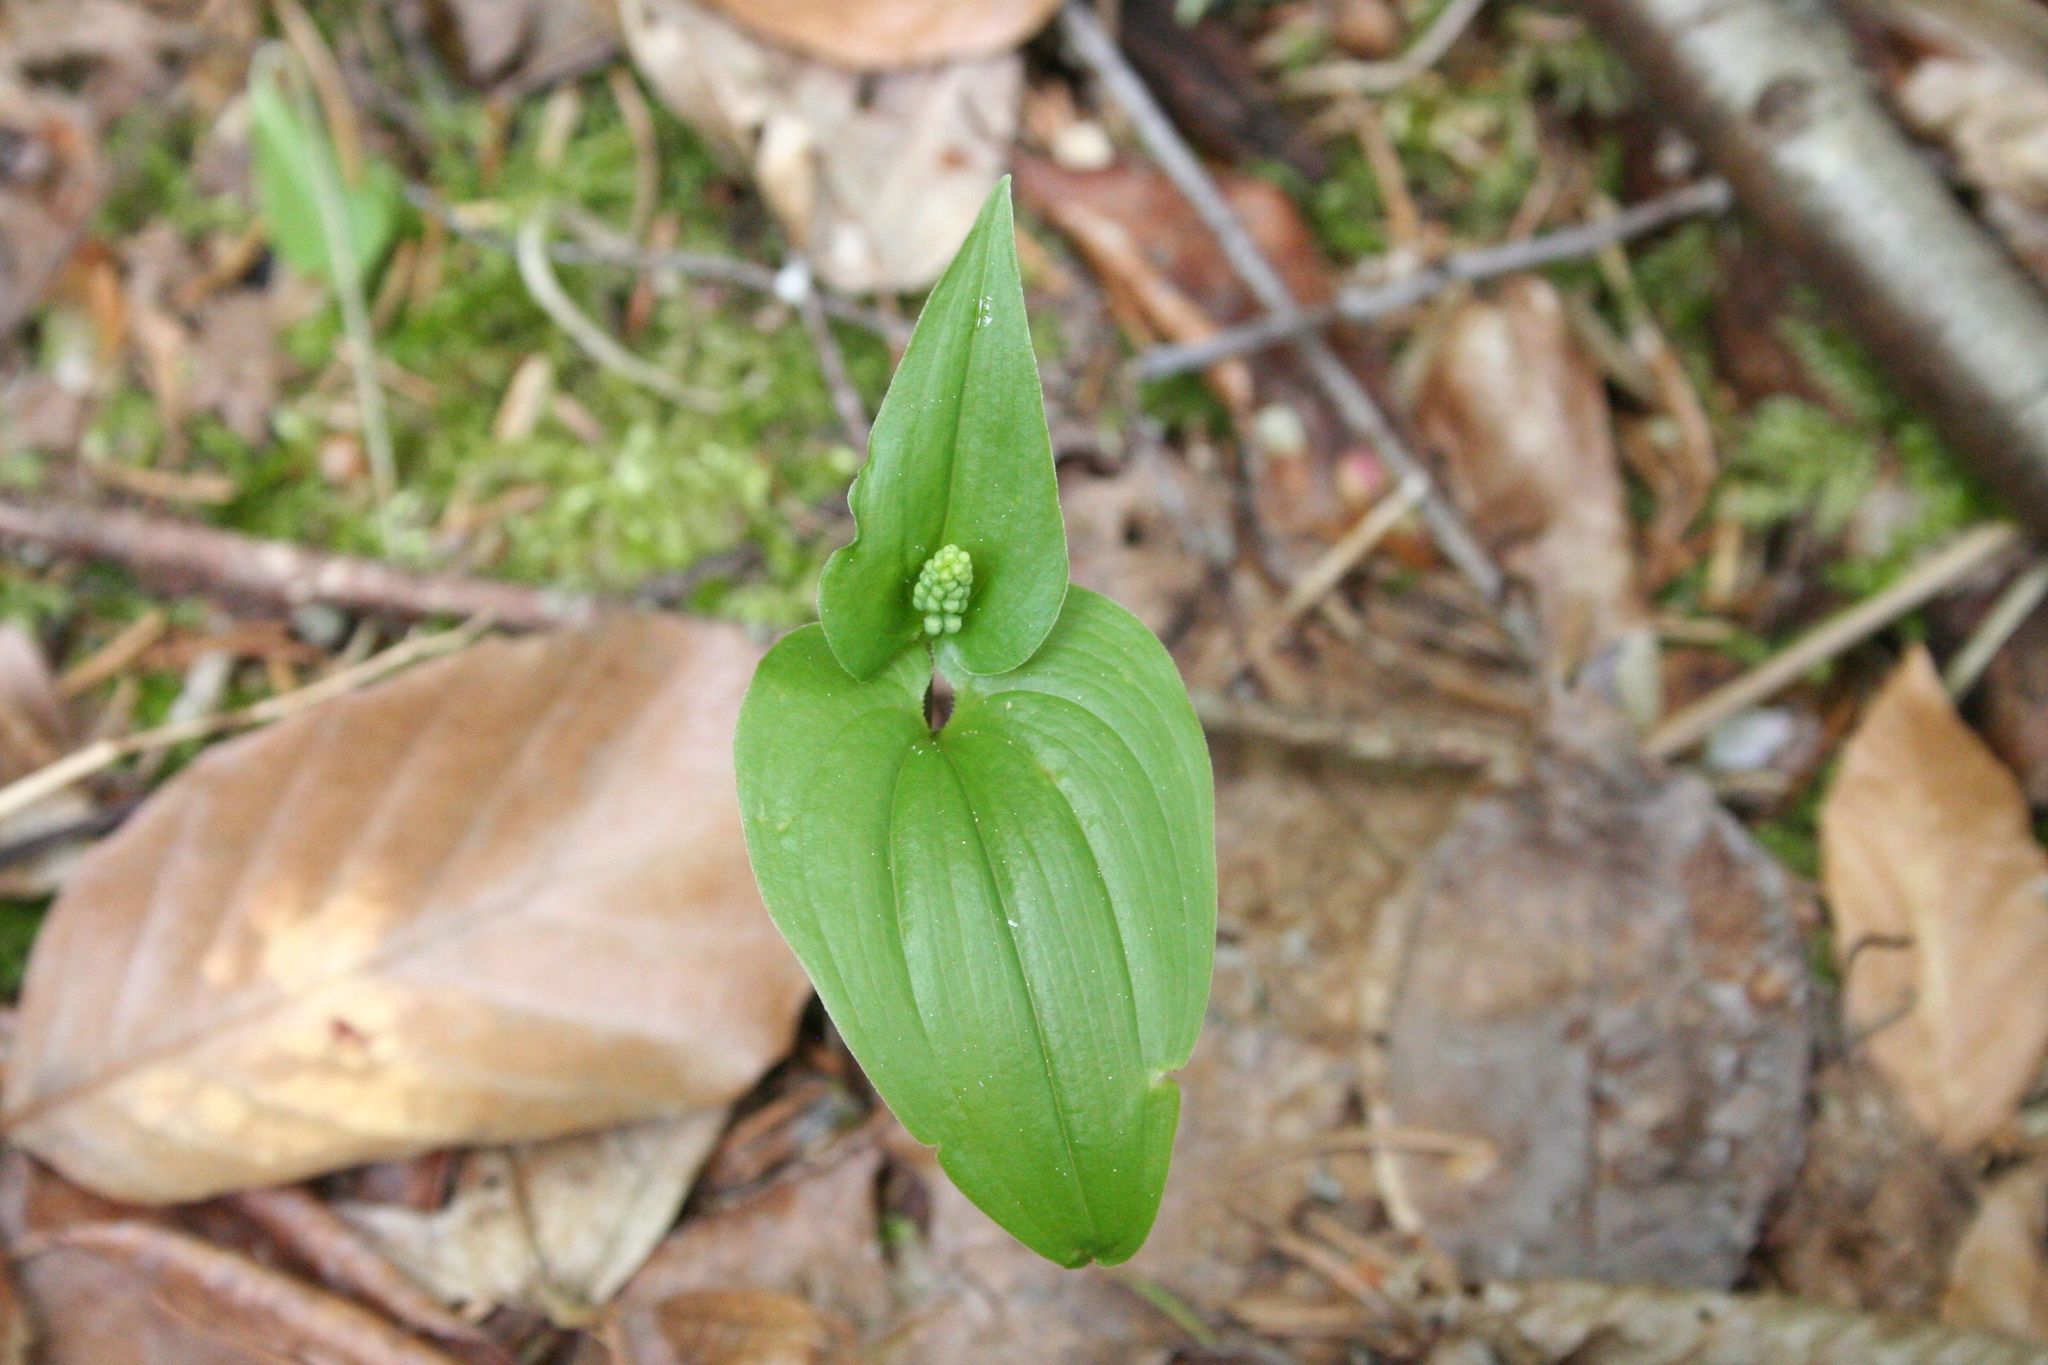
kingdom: Plantae
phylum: Tracheophyta
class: Liliopsida
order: Asparagales
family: Asparagaceae
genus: Maianthemum
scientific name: Maianthemum bifolium
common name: May lily
